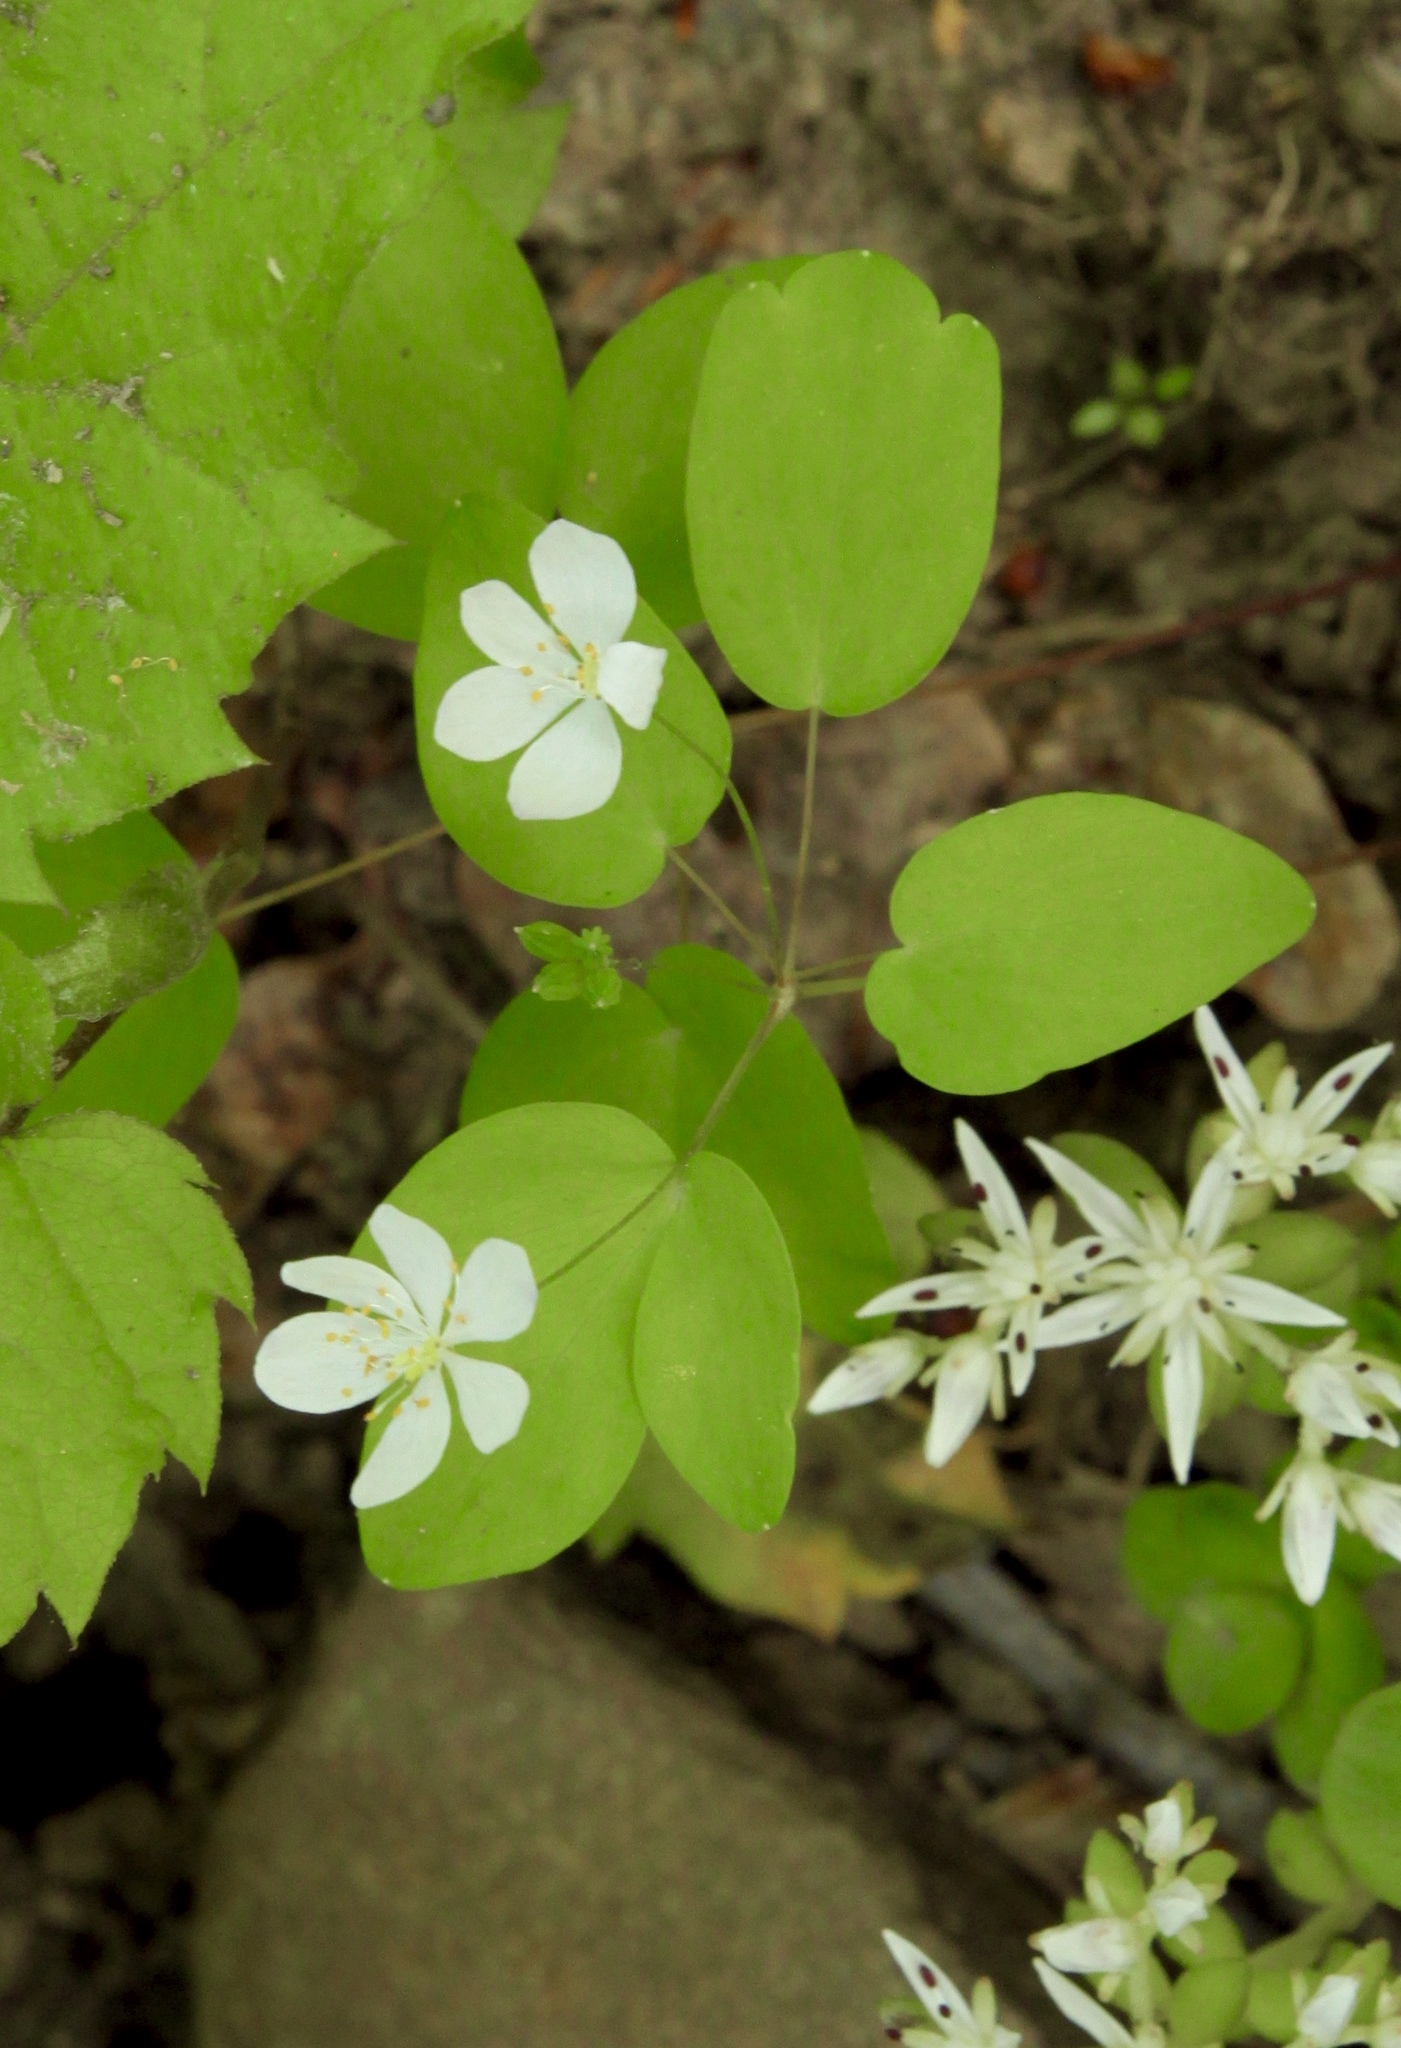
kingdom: Plantae
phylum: Tracheophyta
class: Magnoliopsida
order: Ranunculales
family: Ranunculaceae
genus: Thalictrum
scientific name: Thalictrum thalictroides
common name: Rue-anemone
